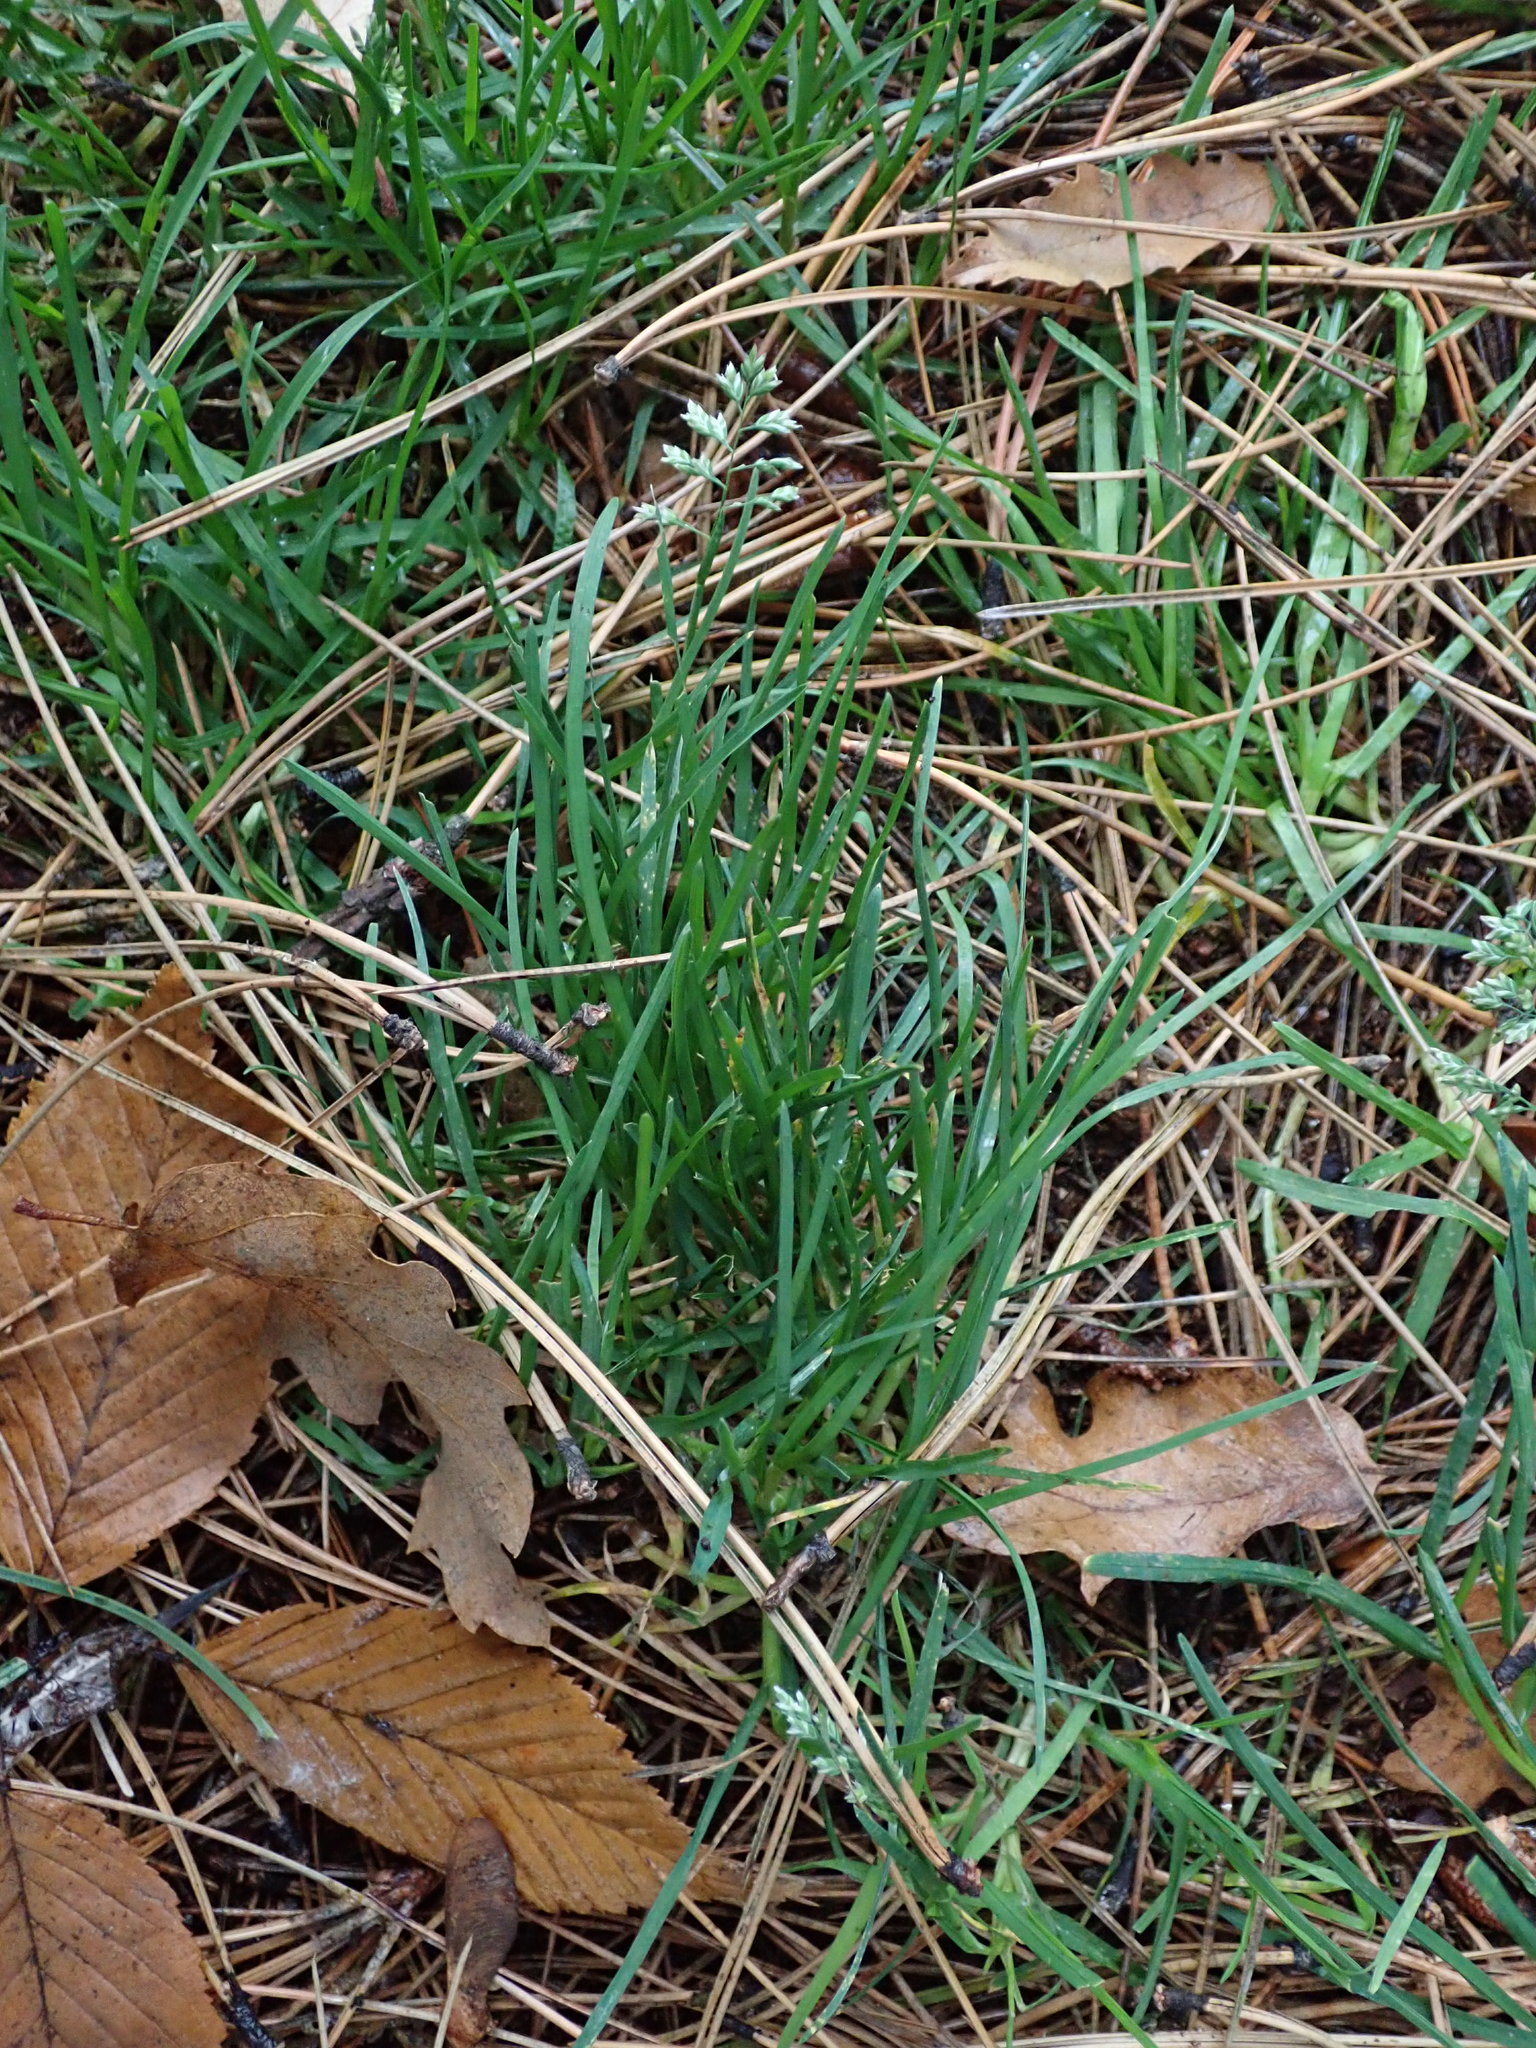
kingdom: Plantae
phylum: Tracheophyta
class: Liliopsida
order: Poales
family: Poaceae
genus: Poa
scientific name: Poa annua
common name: Annual bluegrass
